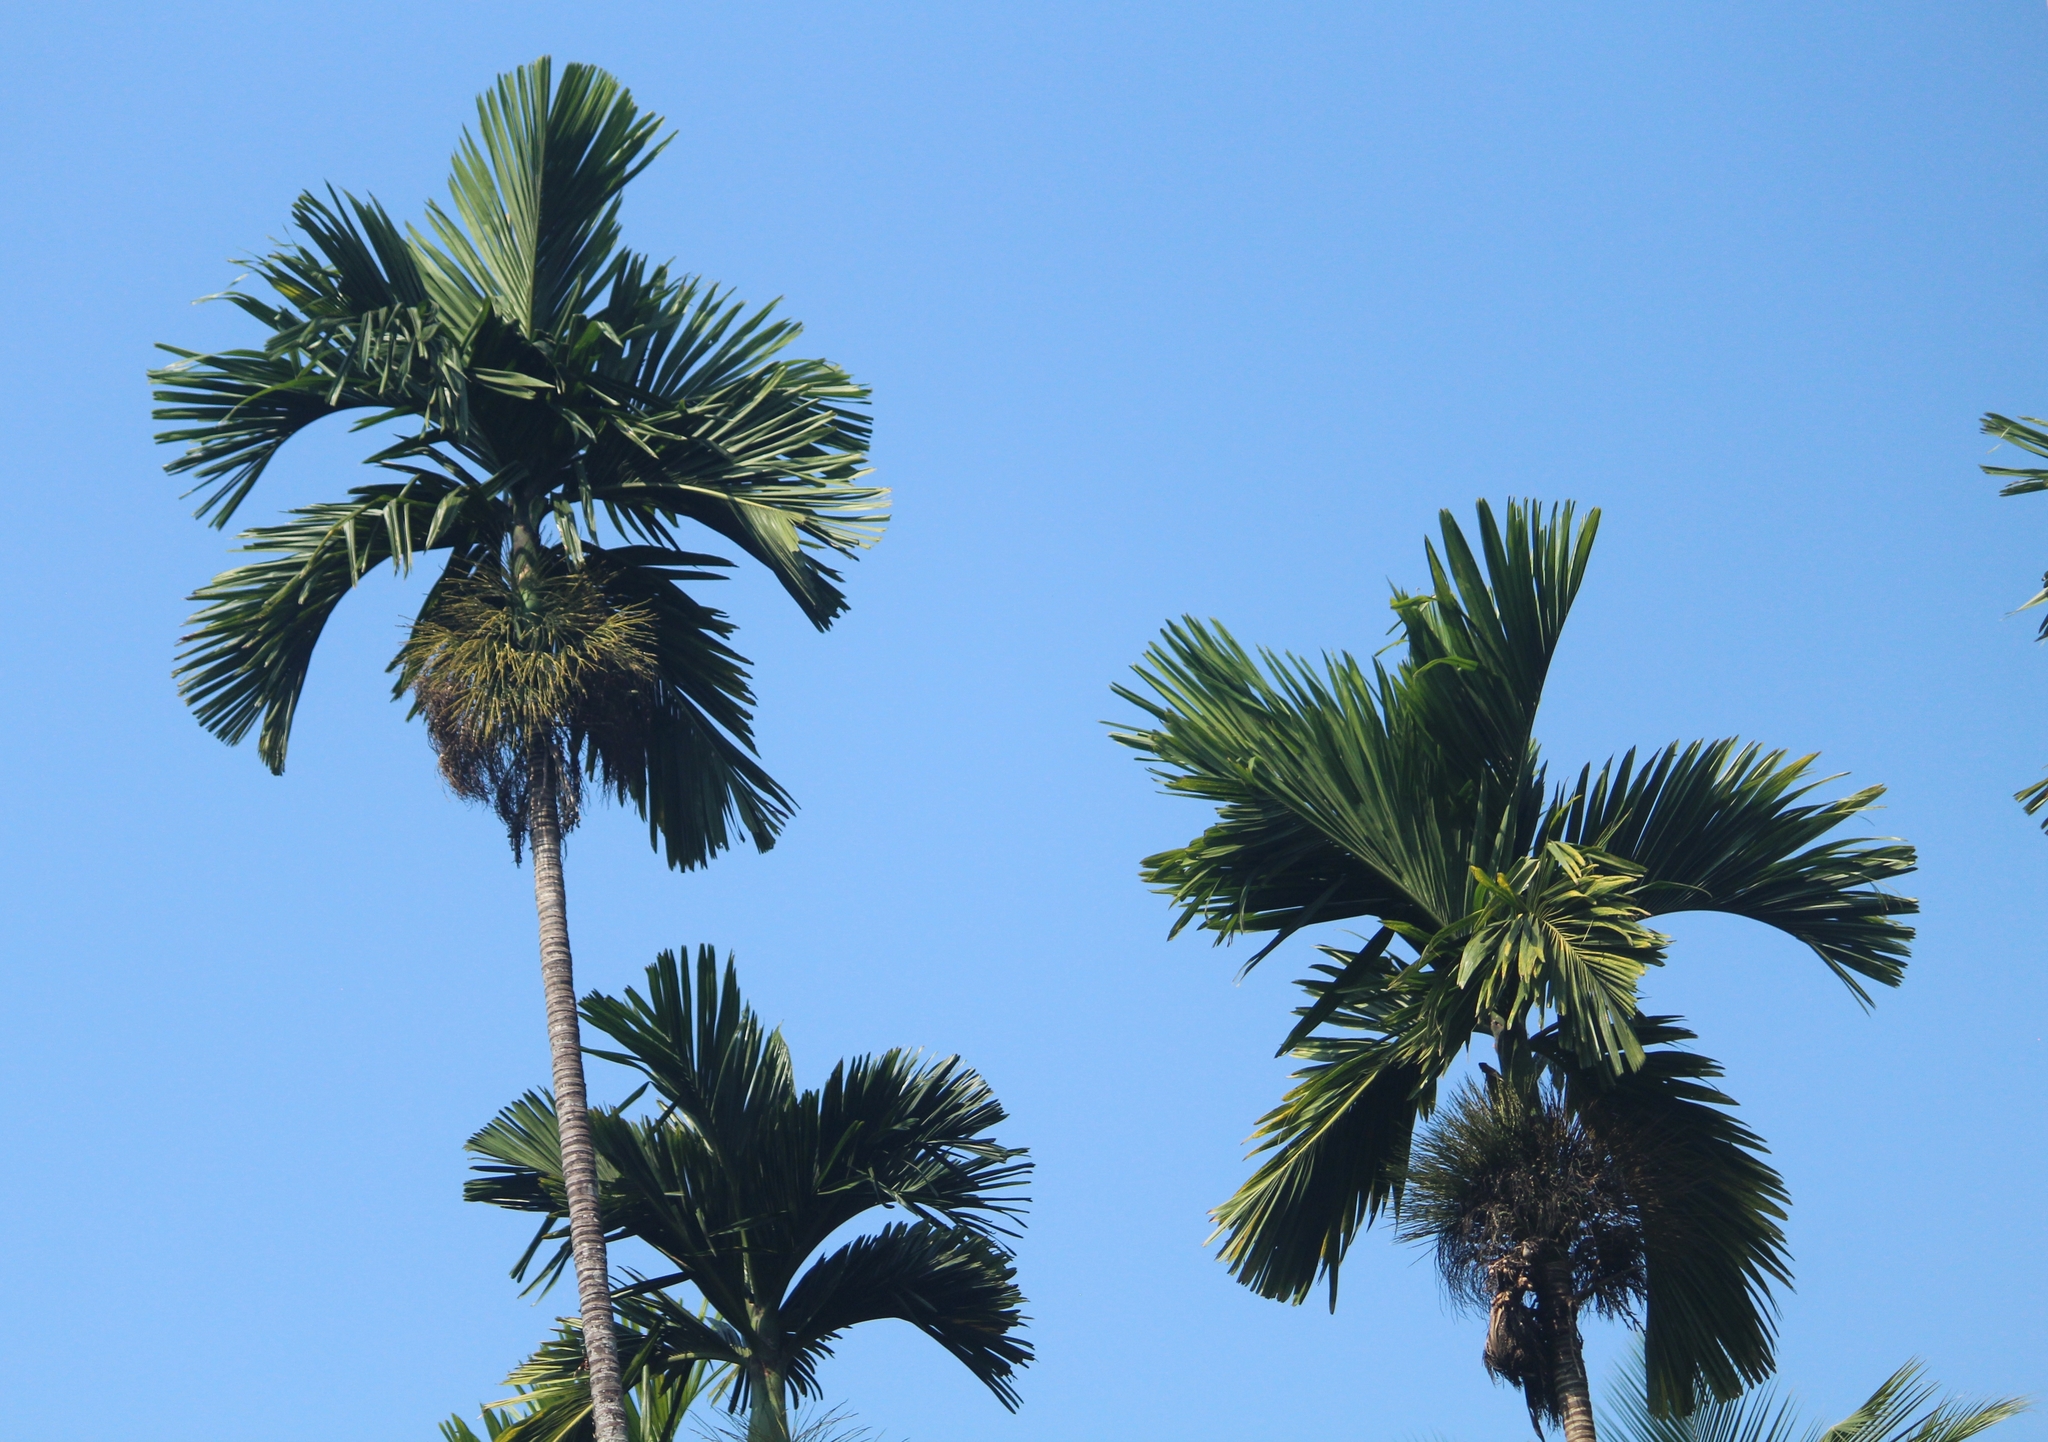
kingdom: Plantae
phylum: Tracheophyta
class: Liliopsida
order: Arecales
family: Arecaceae
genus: Areca
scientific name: Areca catechu
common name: Indian-nut
